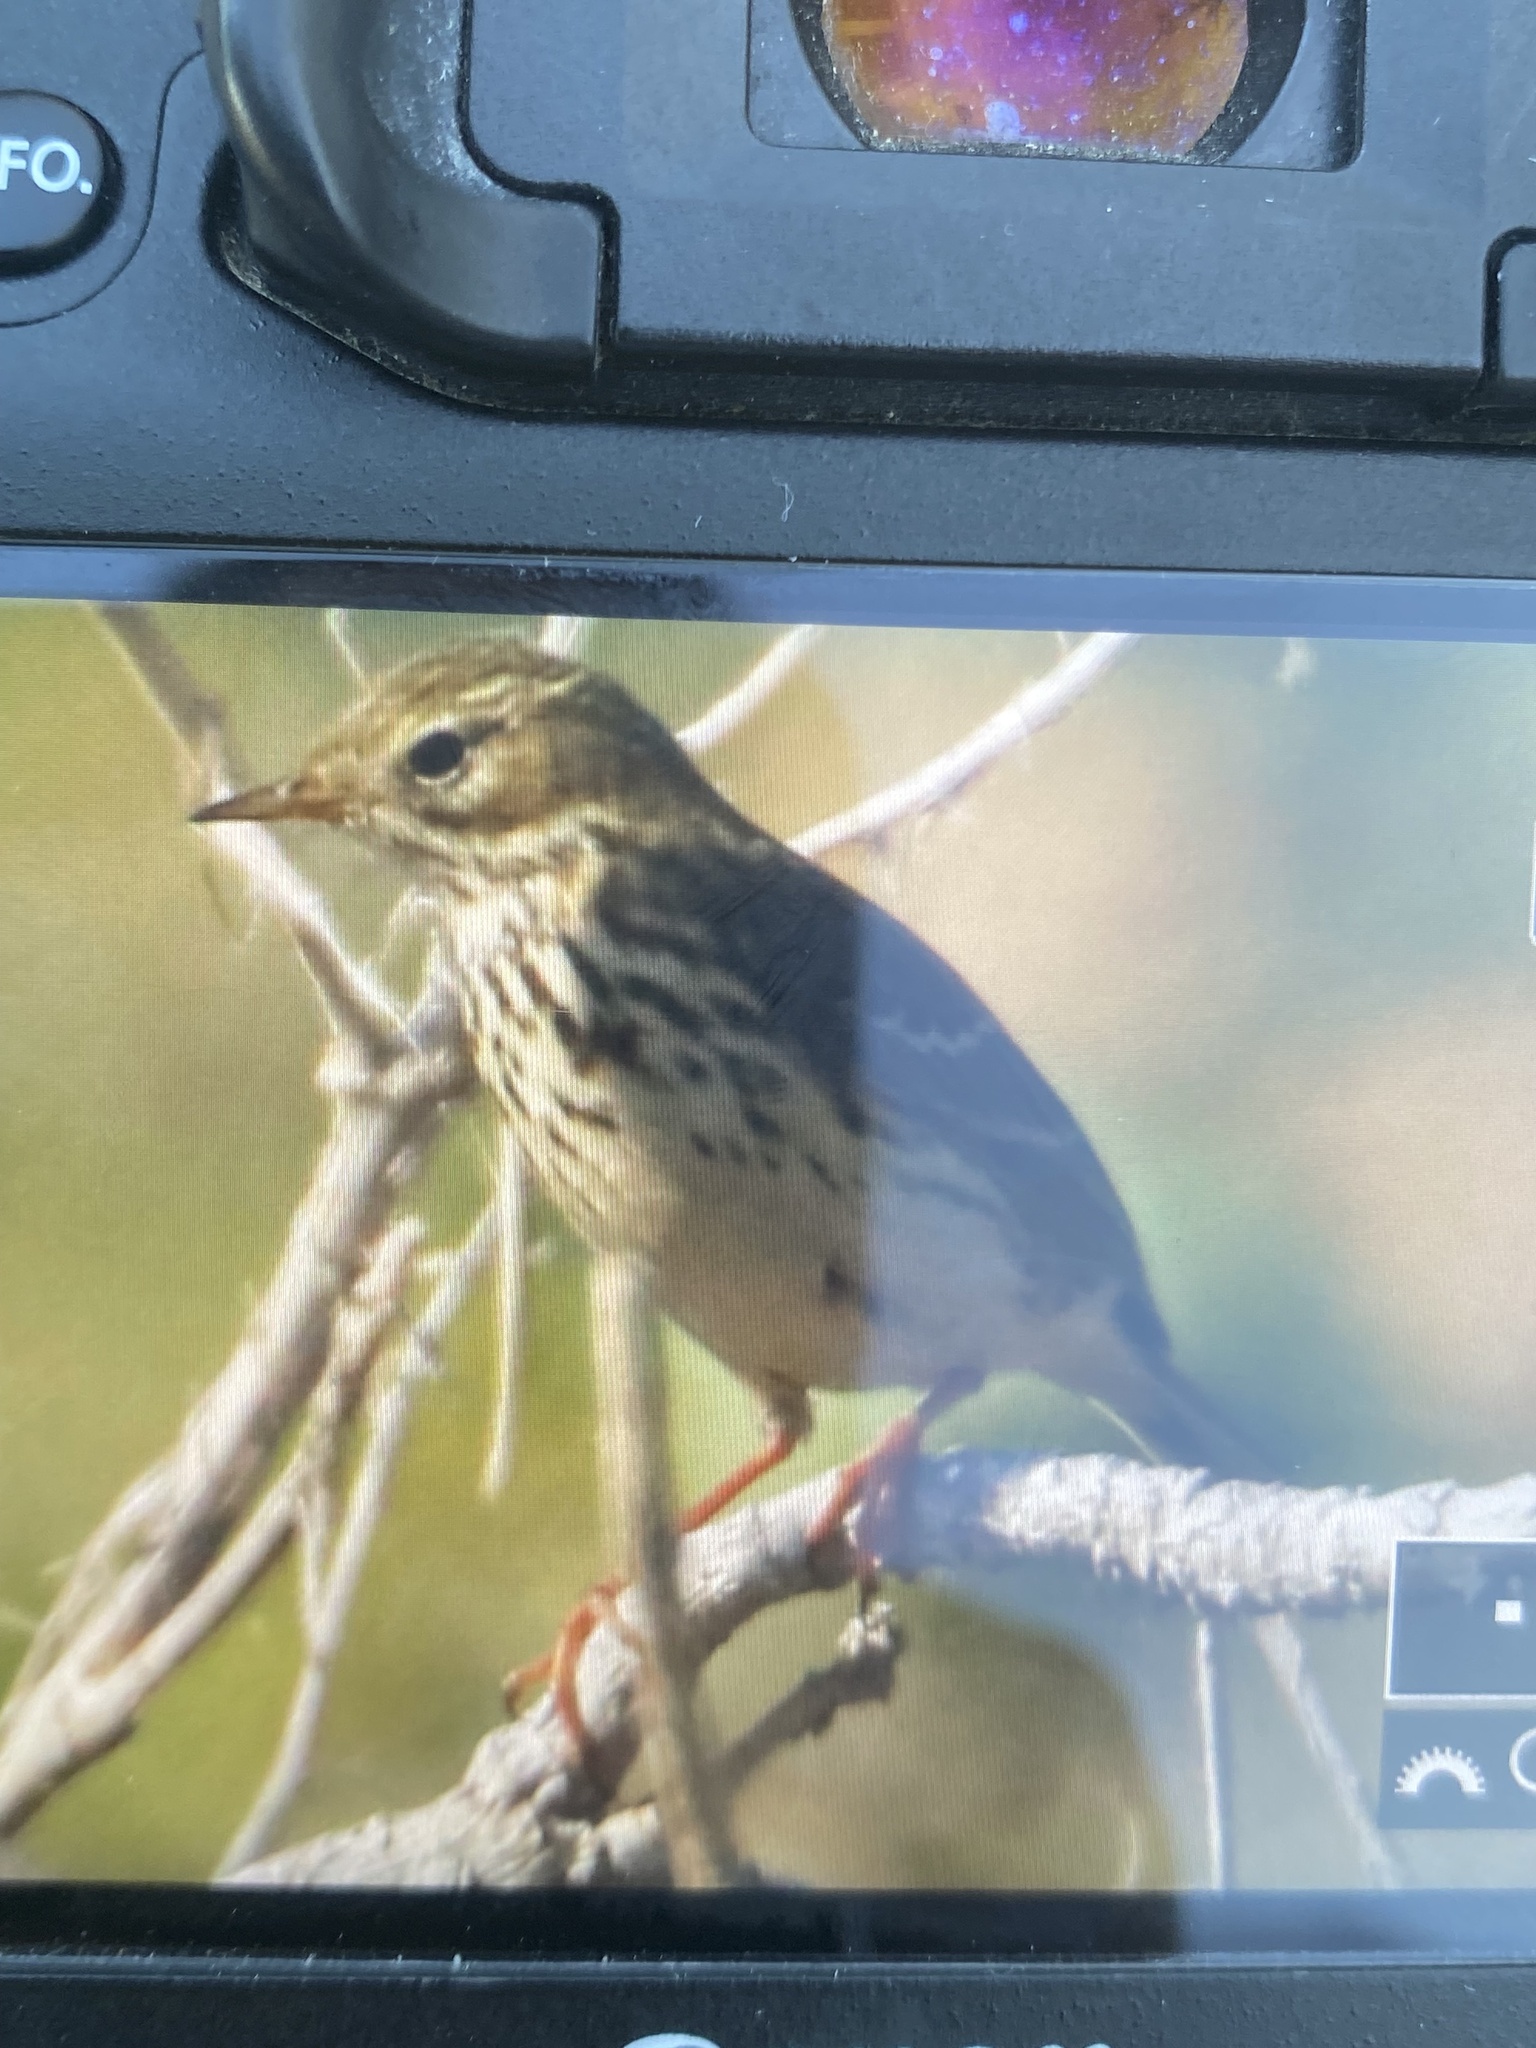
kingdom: Animalia
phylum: Chordata
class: Aves
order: Passeriformes
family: Motacillidae
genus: Anthus
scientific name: Anthus pratensis
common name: Meadow pipit
